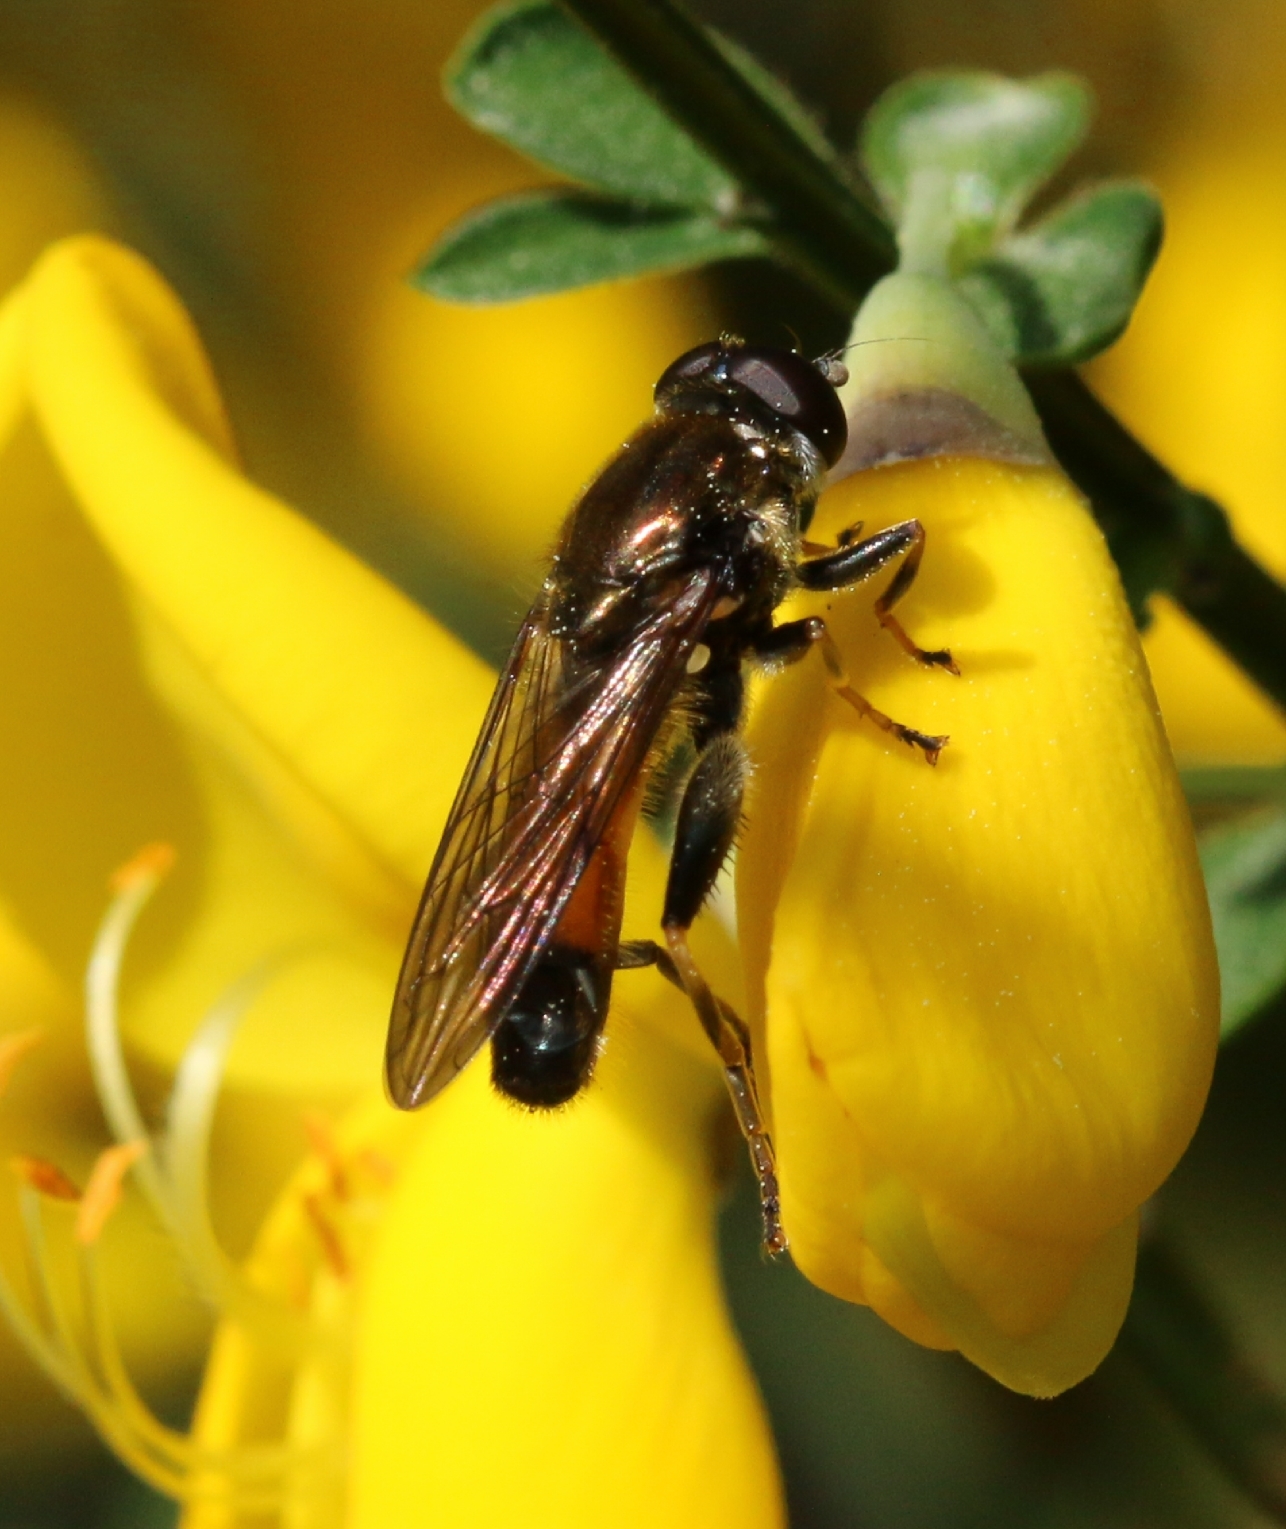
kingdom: Animalia
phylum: Arthropoda
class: Insecta
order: Diptera
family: Syrphidae
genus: Xylota
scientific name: Xylota segnis
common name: Brown-toed forest fly
